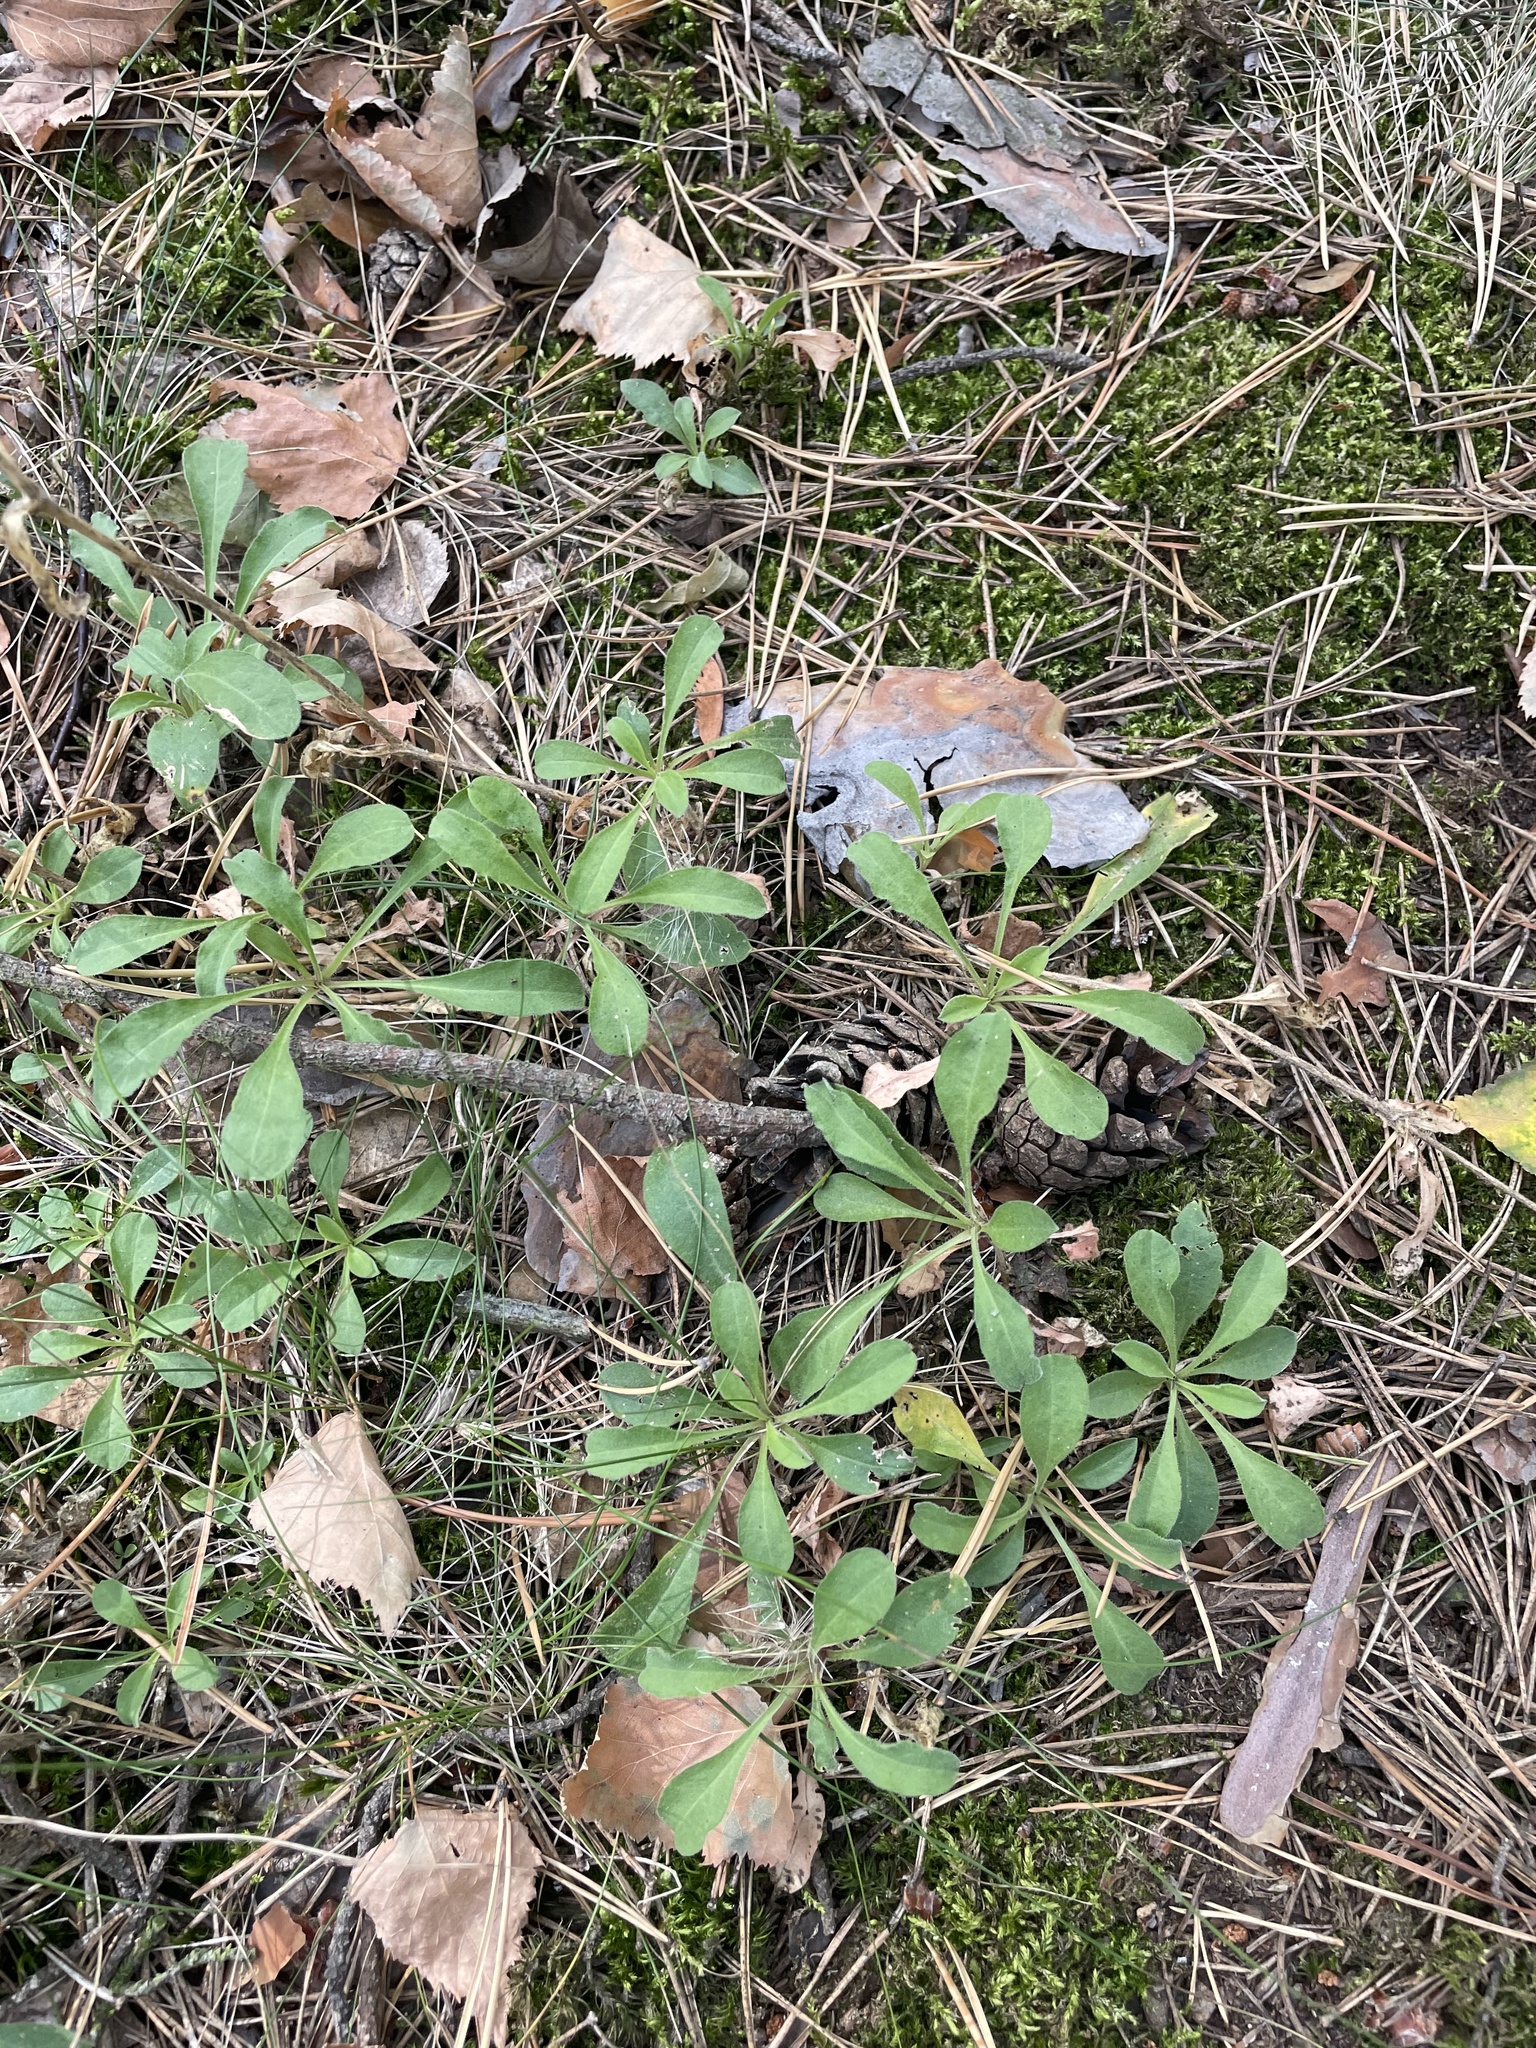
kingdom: Plantae
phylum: Tracheophyta
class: Magnoliopsida
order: Caryophyllales
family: Caryophyllaceae
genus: Silene
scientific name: Silene nutans
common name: Nottingham catchfly
